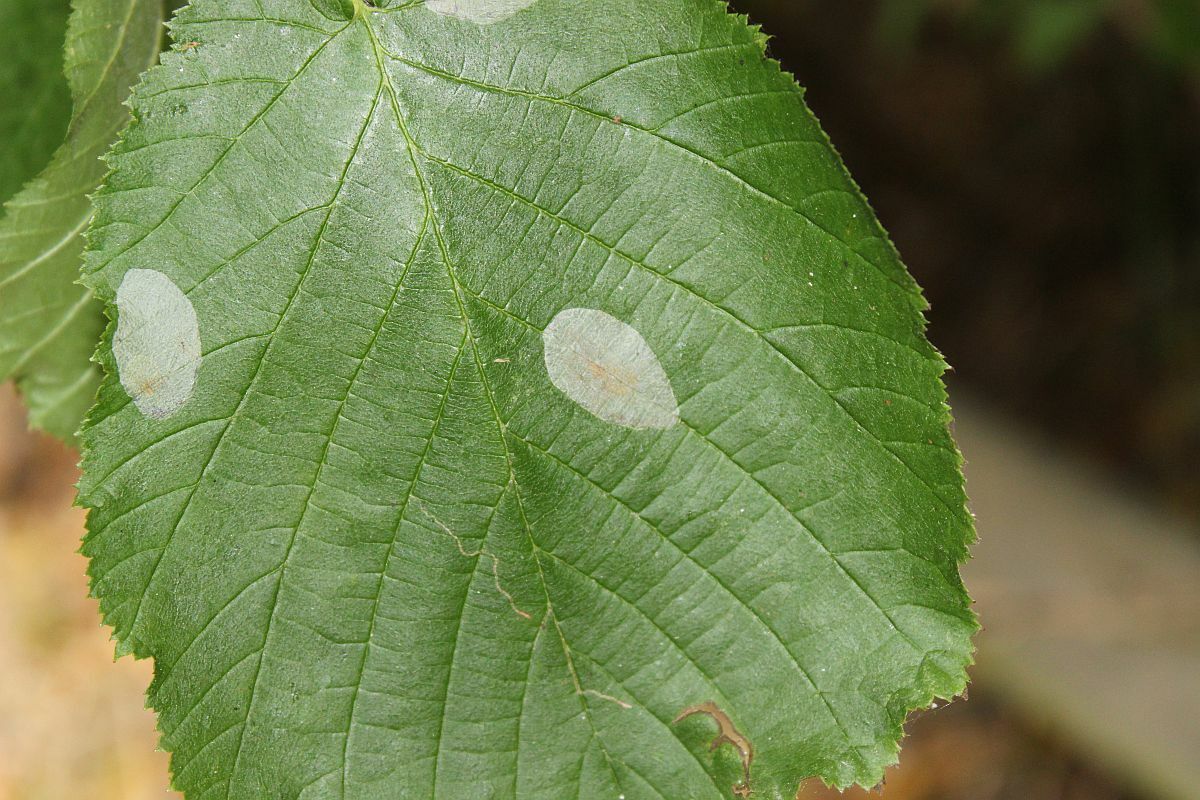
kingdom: Animalia
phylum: Arthropoda
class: Insecta
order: Lepidoptera
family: Gracillariidae
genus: Phyllonorycter
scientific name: Phyllonorycter coryli
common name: Nut-leaf blister moth
